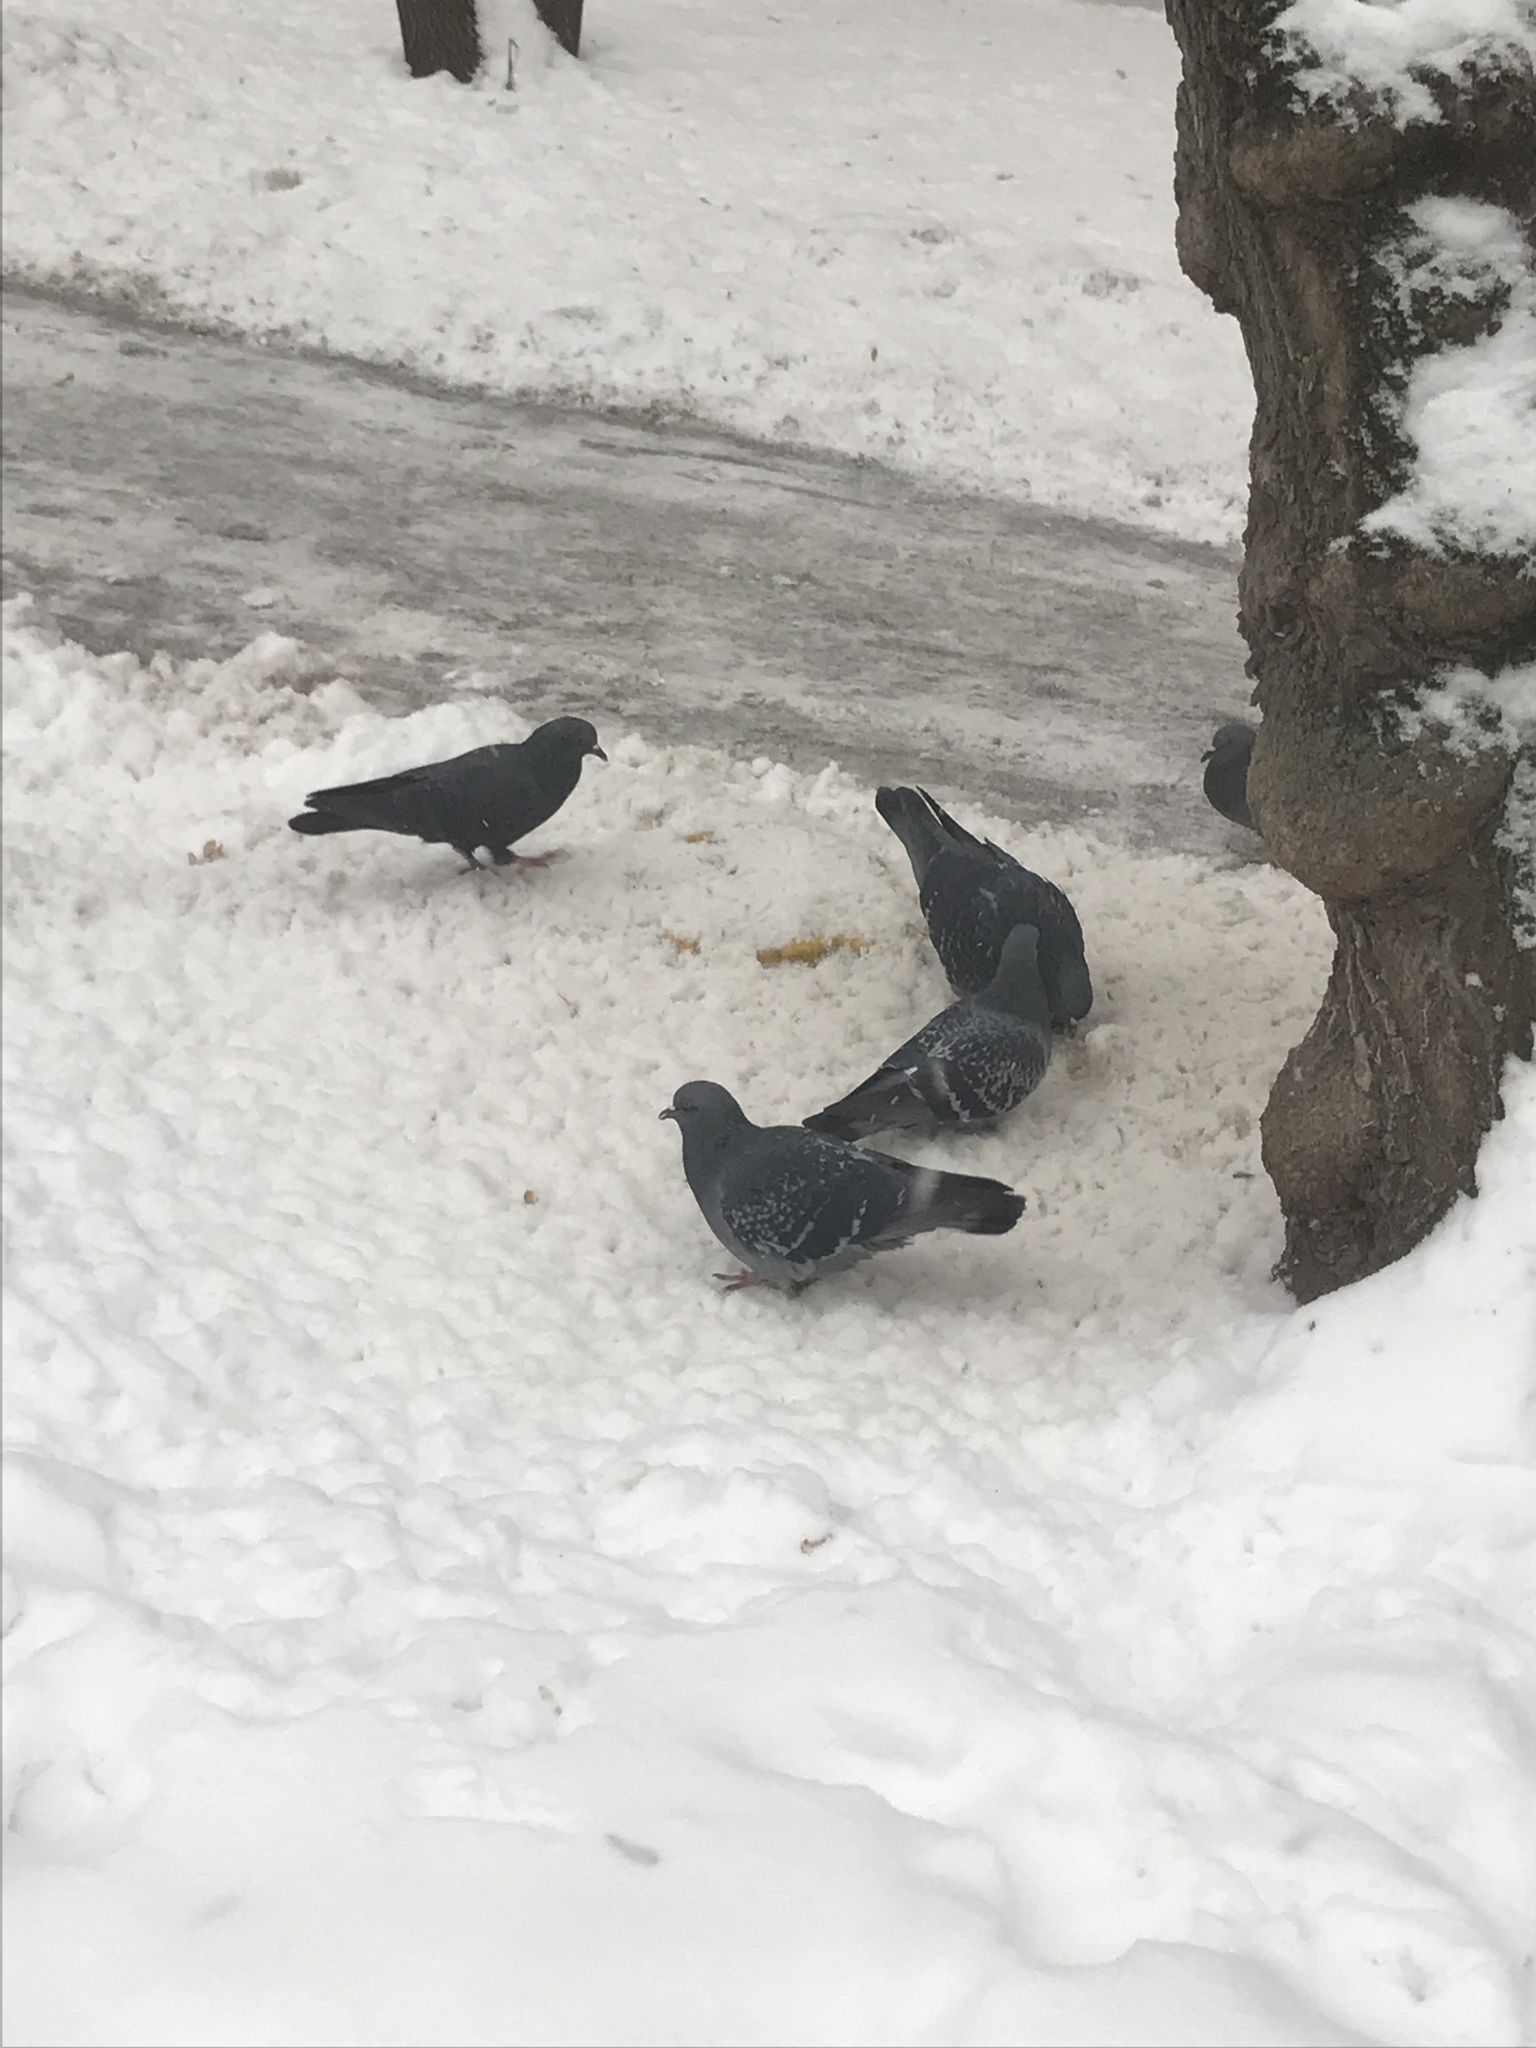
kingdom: Animalia
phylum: Chordata
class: Aves
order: Columbiformes
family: Columbidae
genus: Columba
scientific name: Columba livia
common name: Rock pigeon
